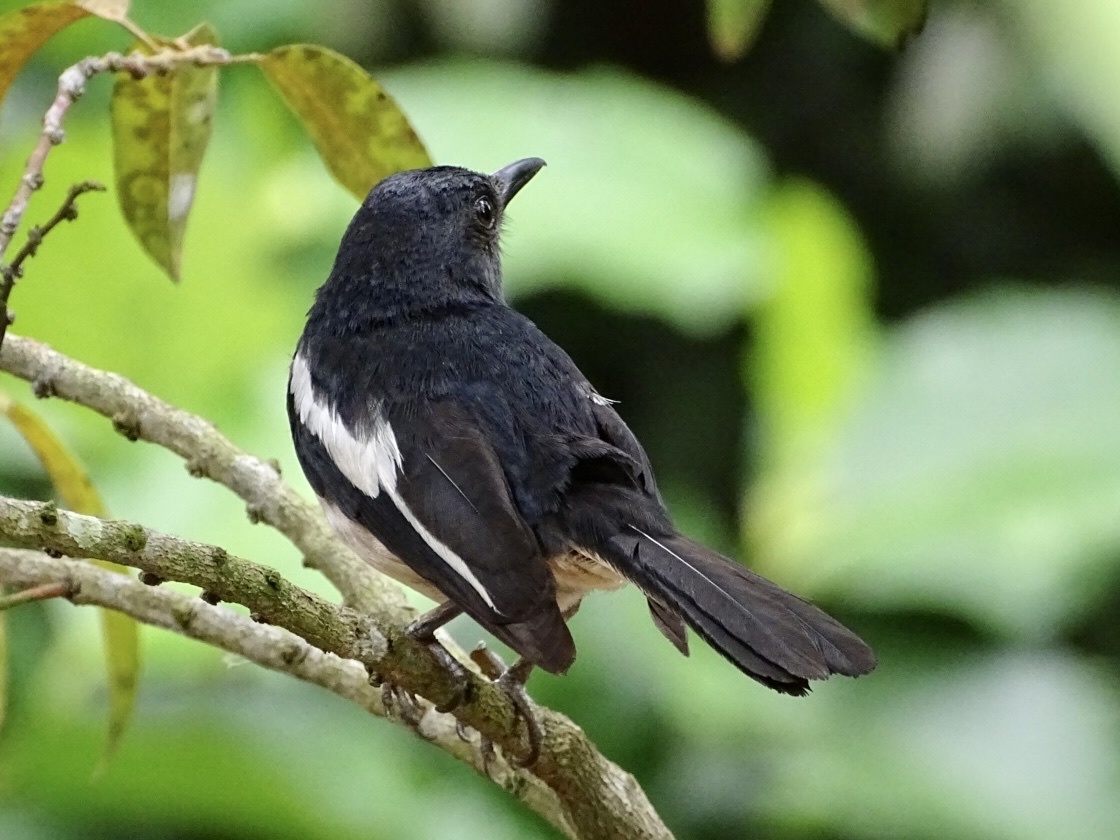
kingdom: Animalia
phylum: Chordata
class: Aves
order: Passeriformes
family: Muscicapidae
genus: Copsychus
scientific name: Copsychus saularis
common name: Oriental magpie-robin
